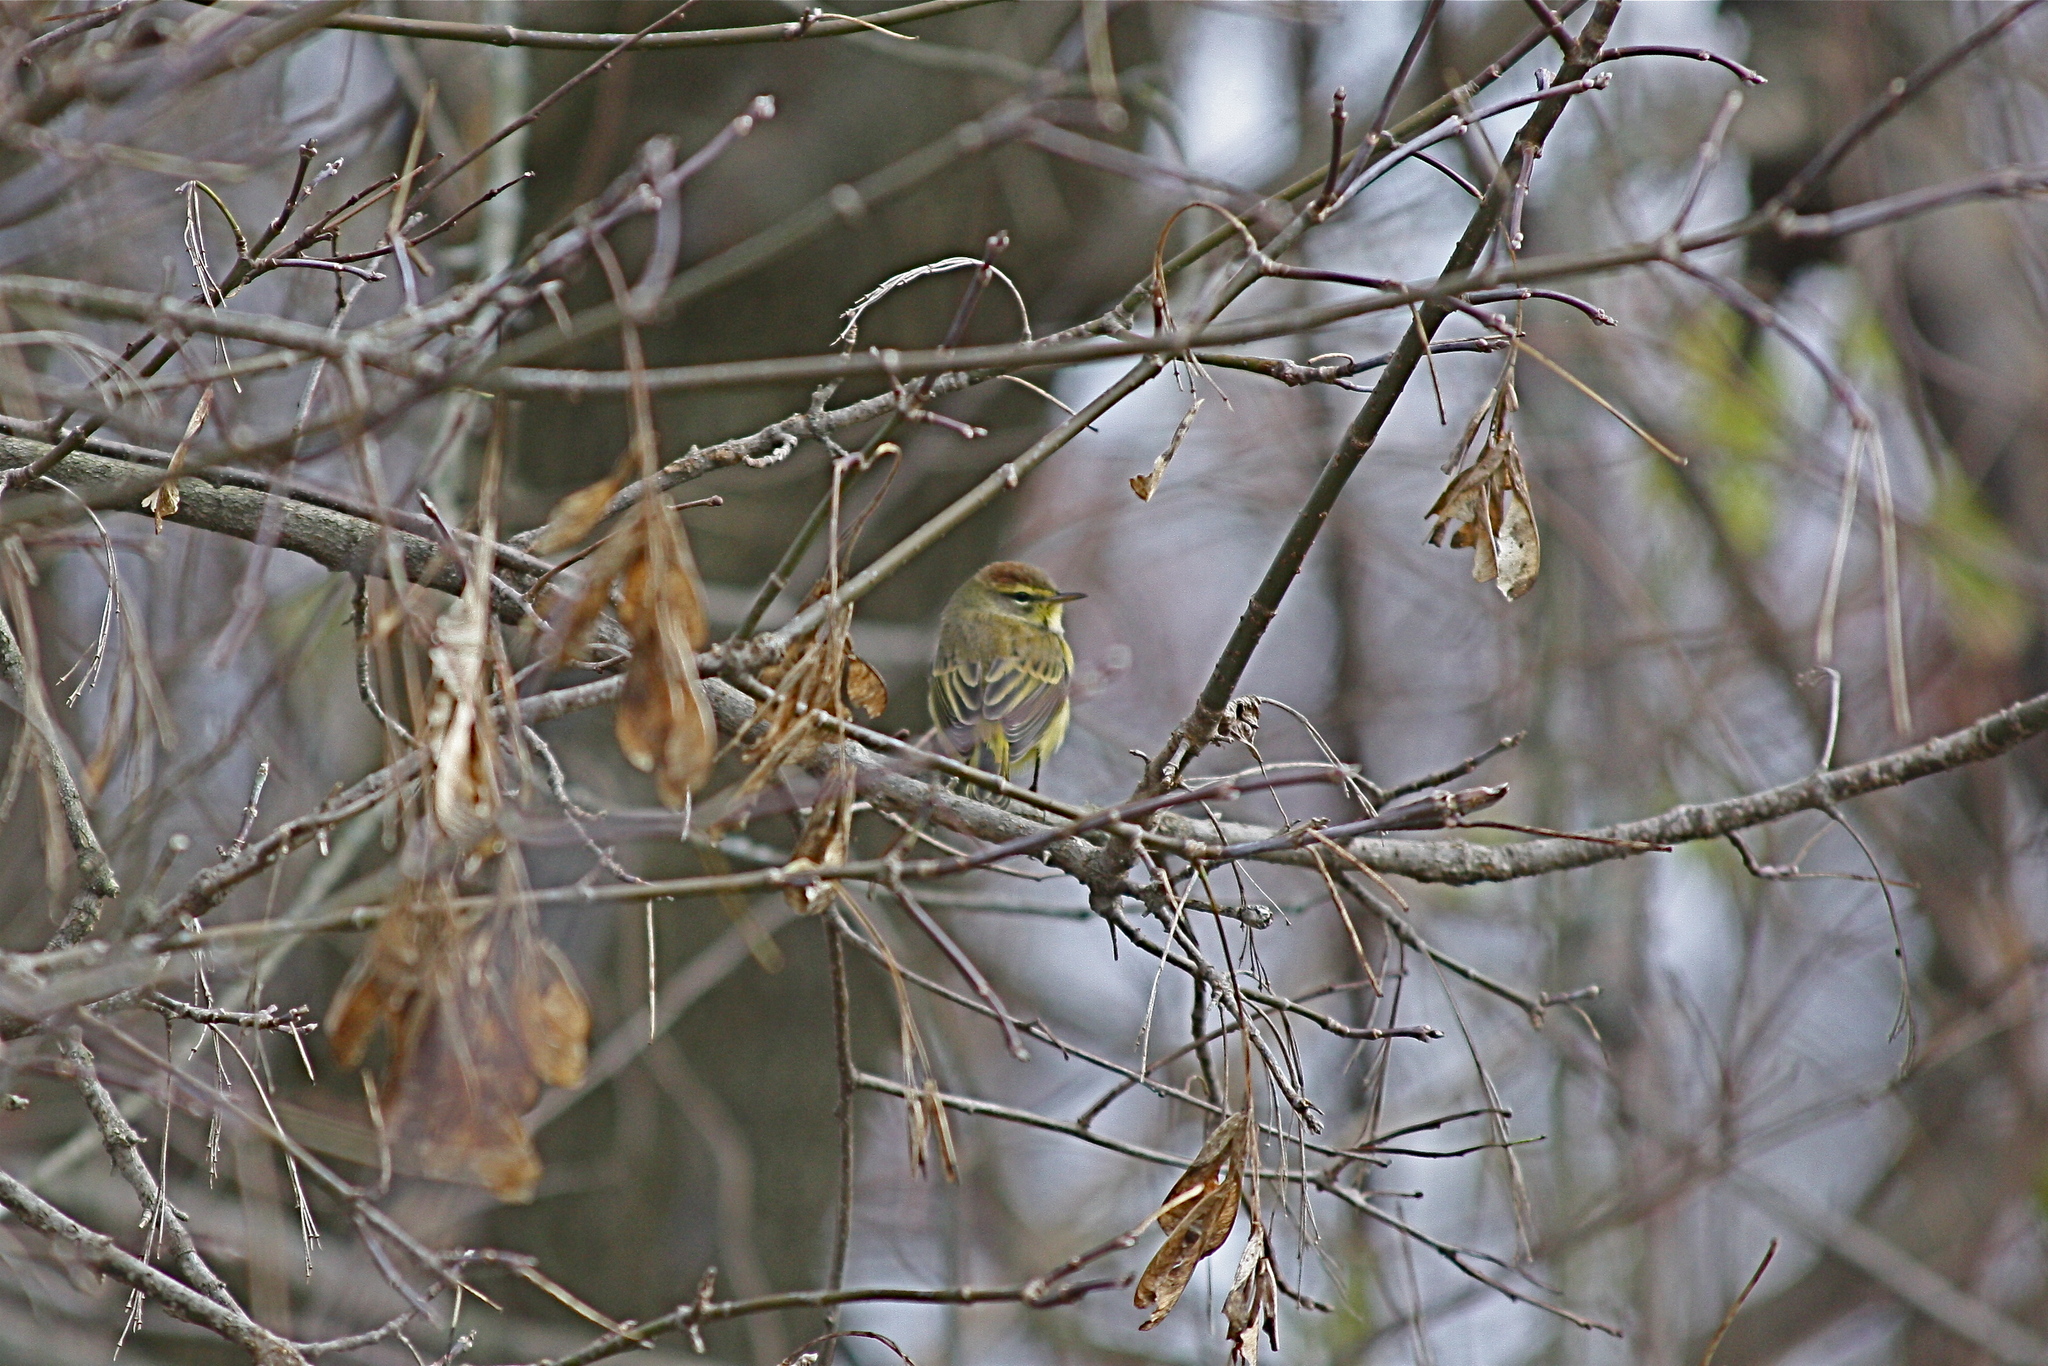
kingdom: Animalia
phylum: Chordata
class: Aves
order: Passeriformes
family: Parulidae
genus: Setophaga
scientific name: Setophaga palmarum
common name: Palm warbler
